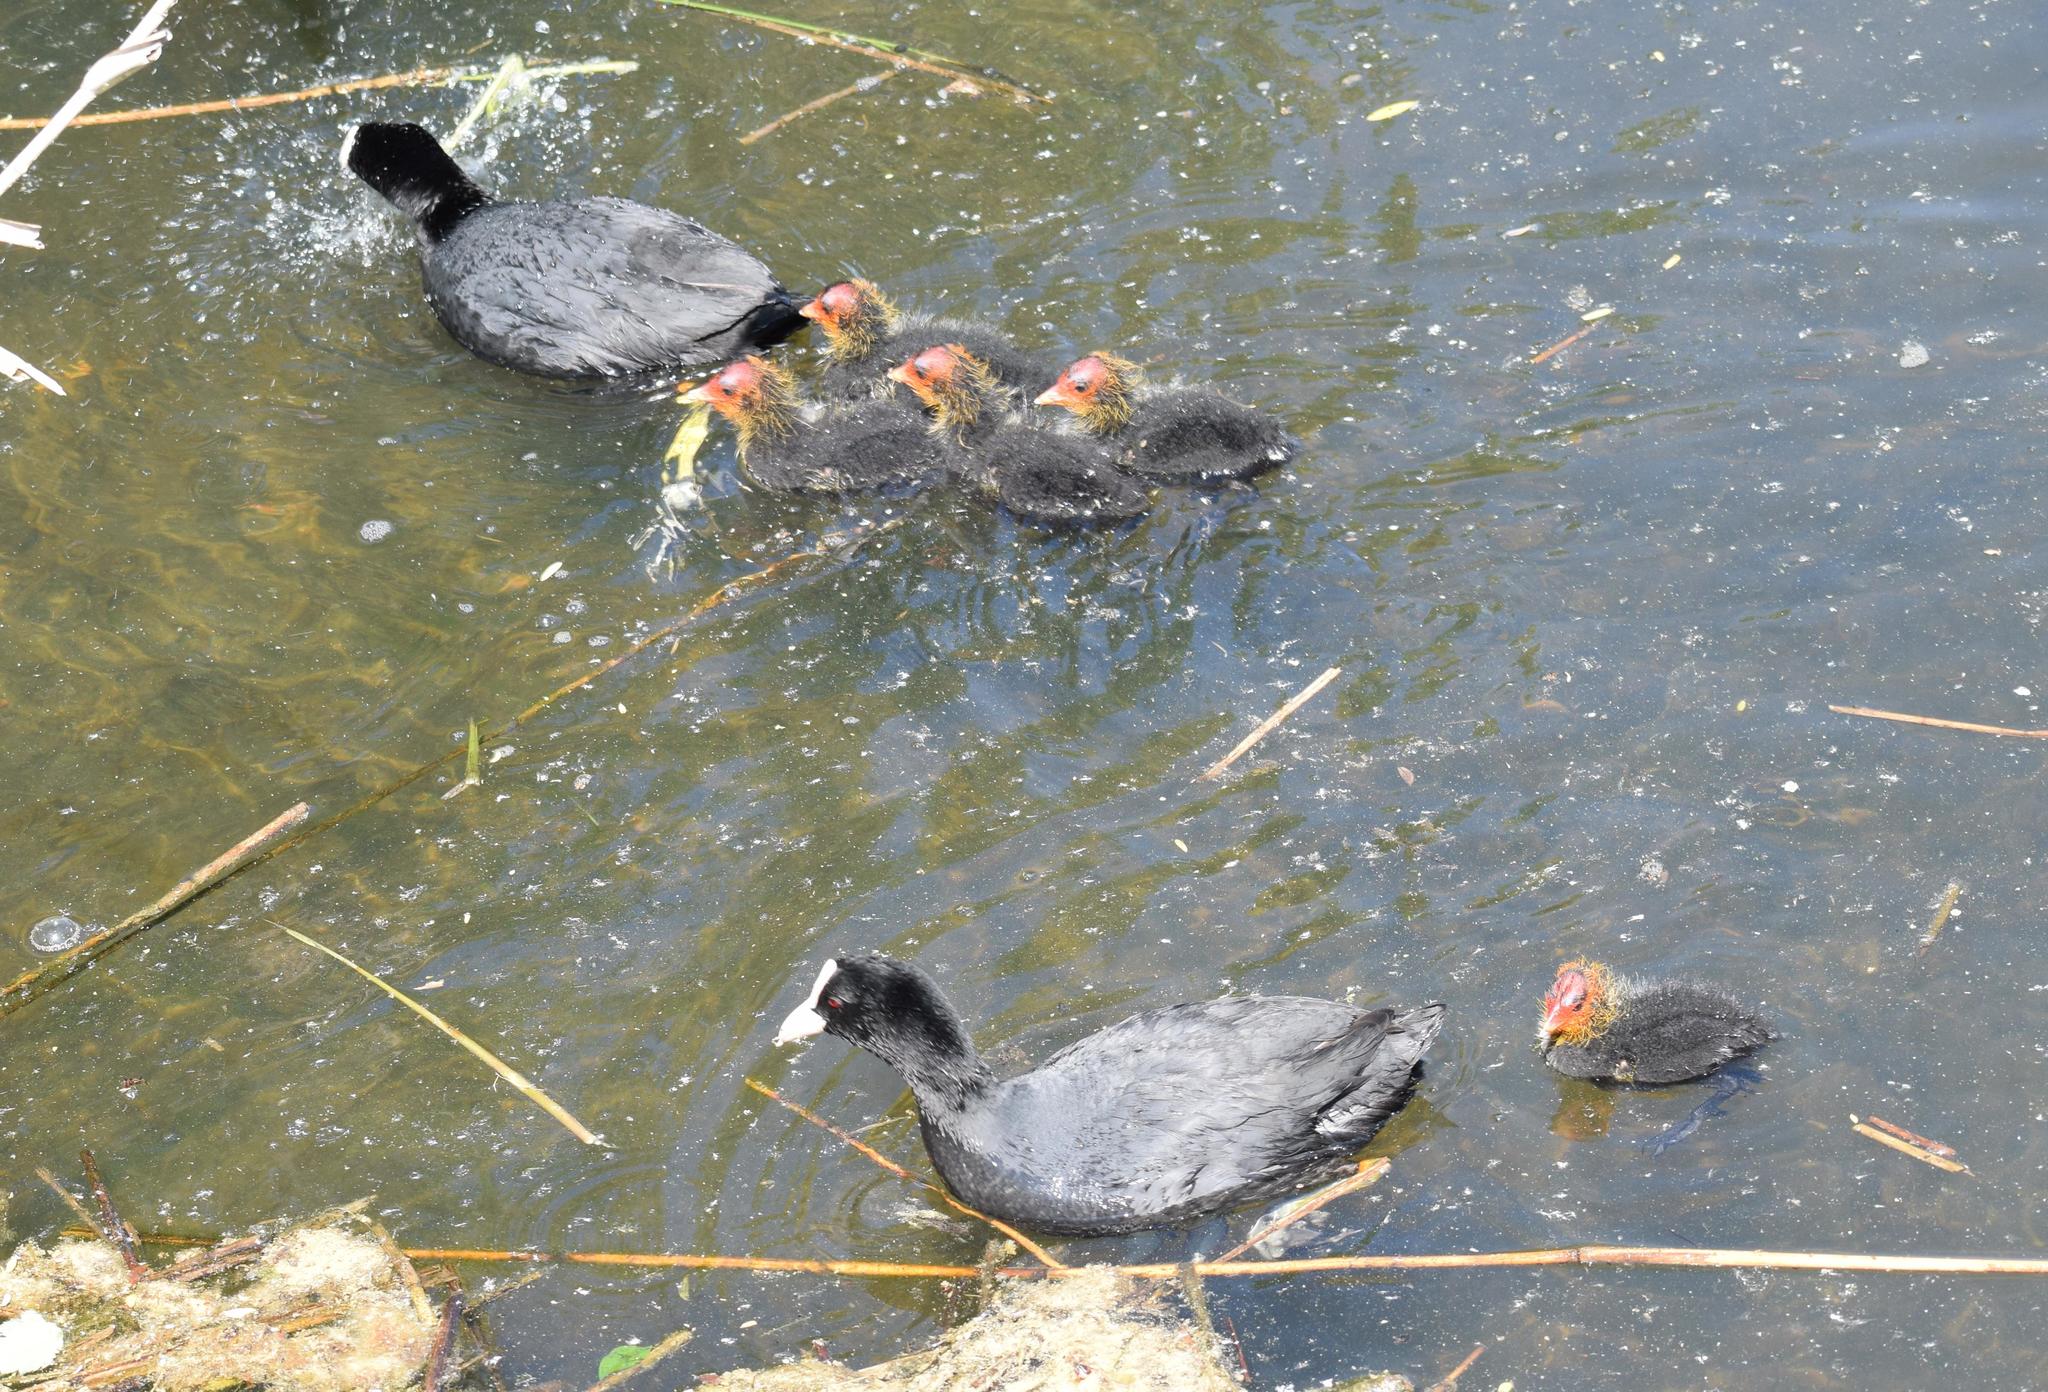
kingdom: Animalia
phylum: Chordata
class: Aves
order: Gruiformes
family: Rallidae
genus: Fulica
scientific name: Fulica atra
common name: Eurasian coot
